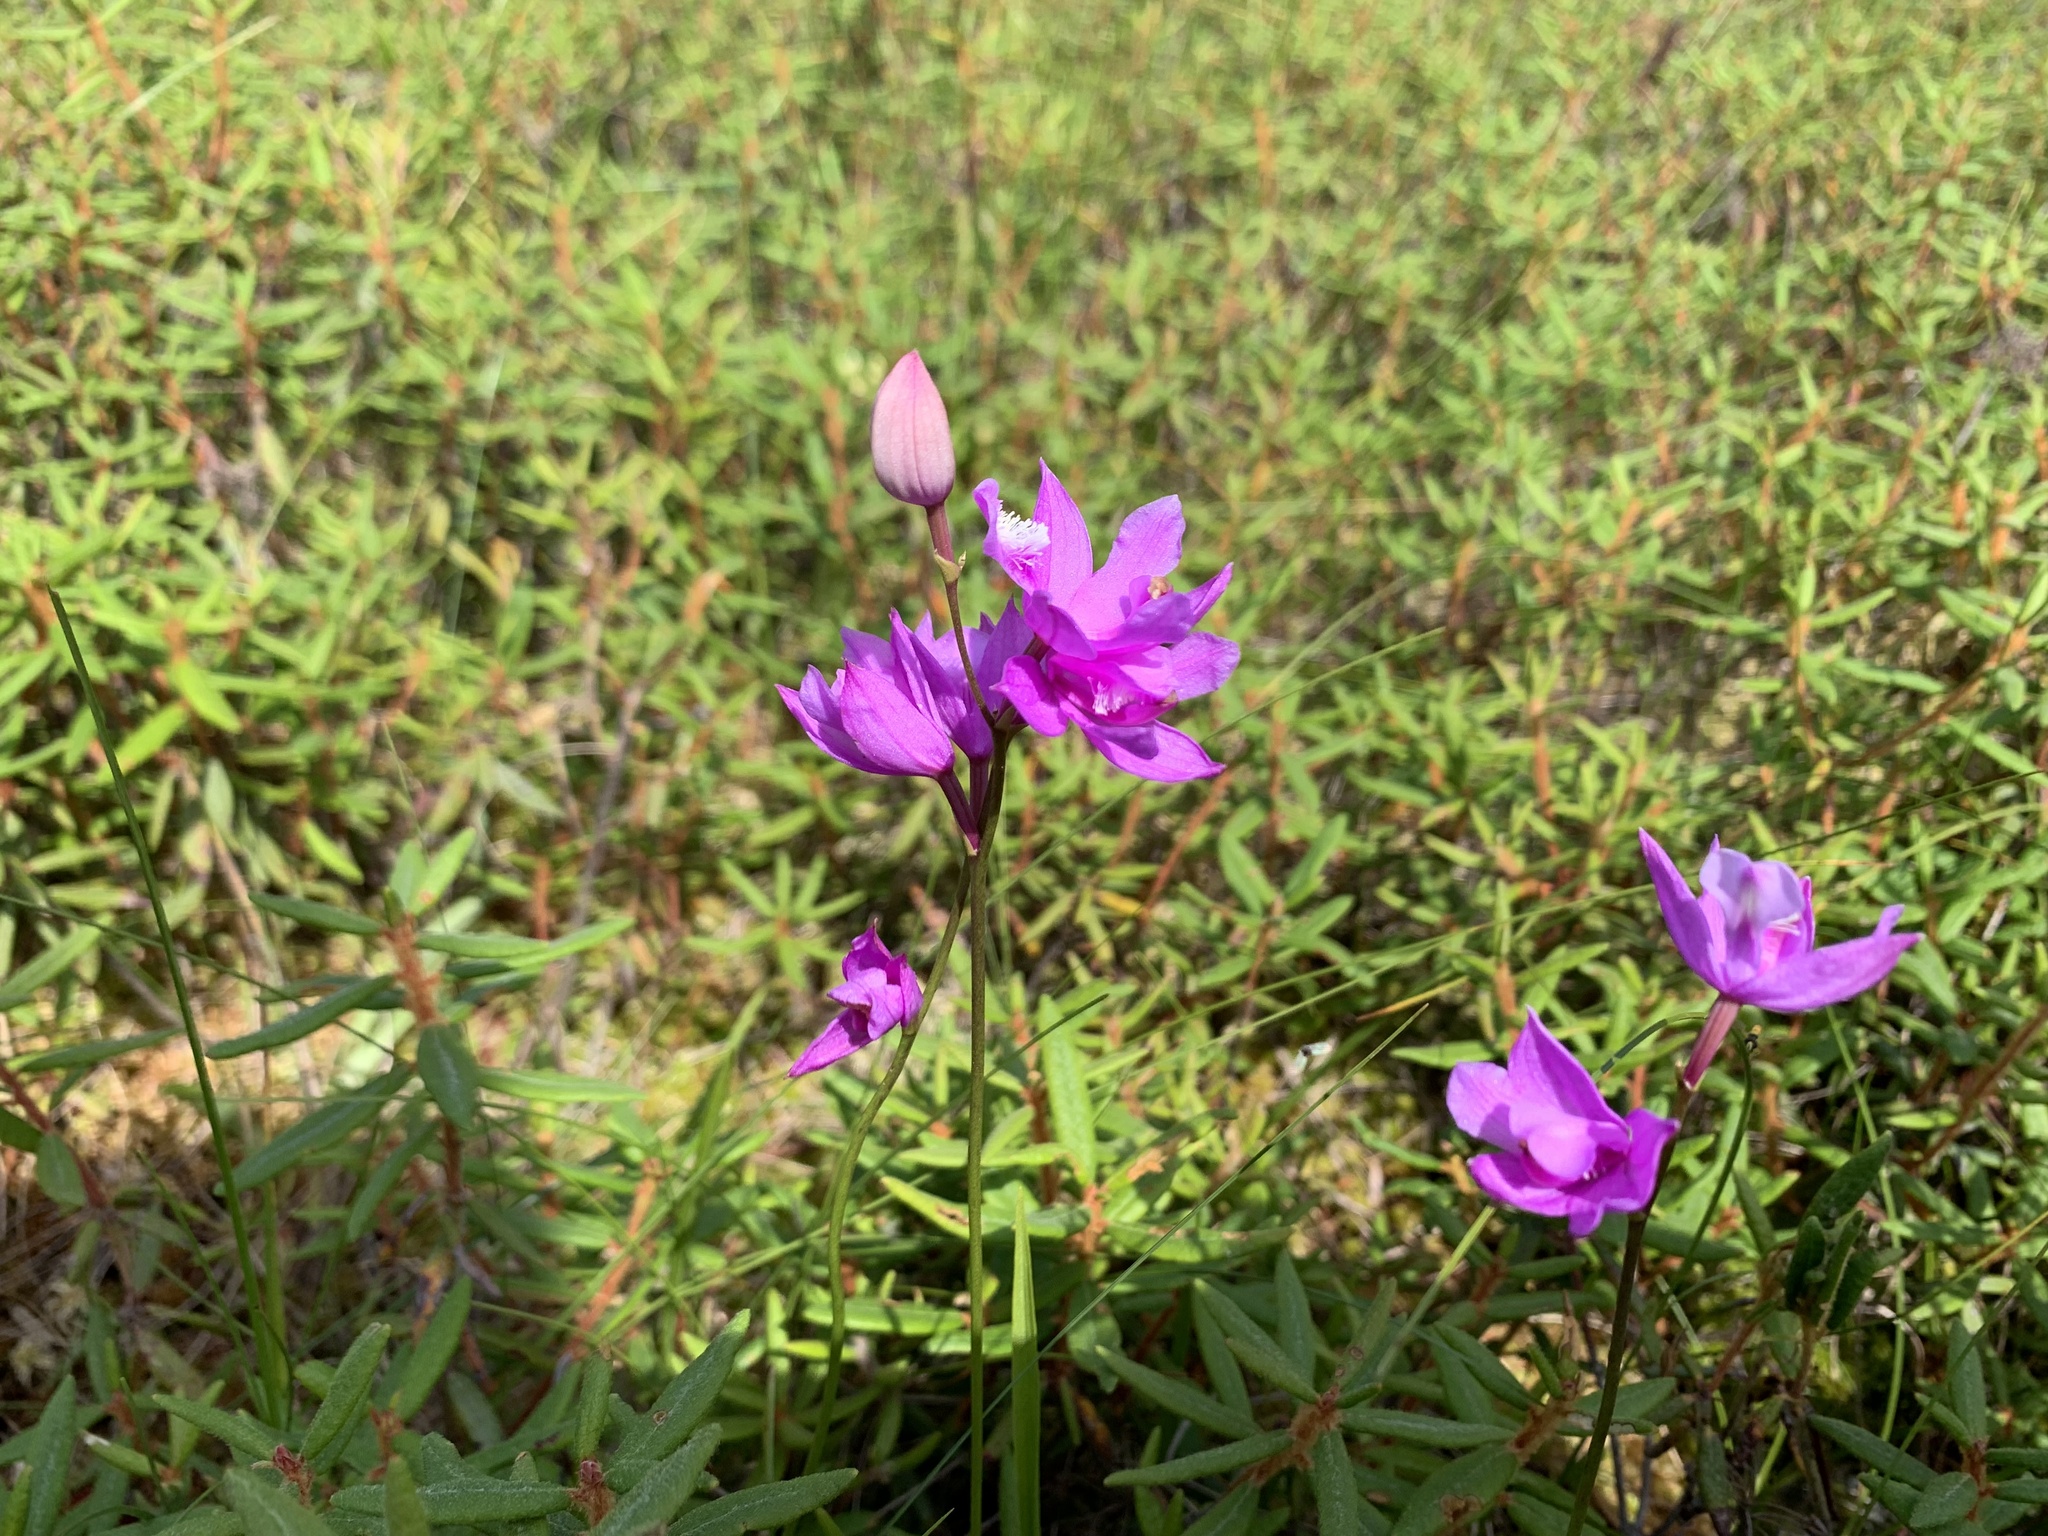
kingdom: Plantae
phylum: Tracheophyta
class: Liliopsida
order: Asparagales
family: Orchidaceae
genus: Calopogon
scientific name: Calopogon tuberosus
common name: Grass-pink
